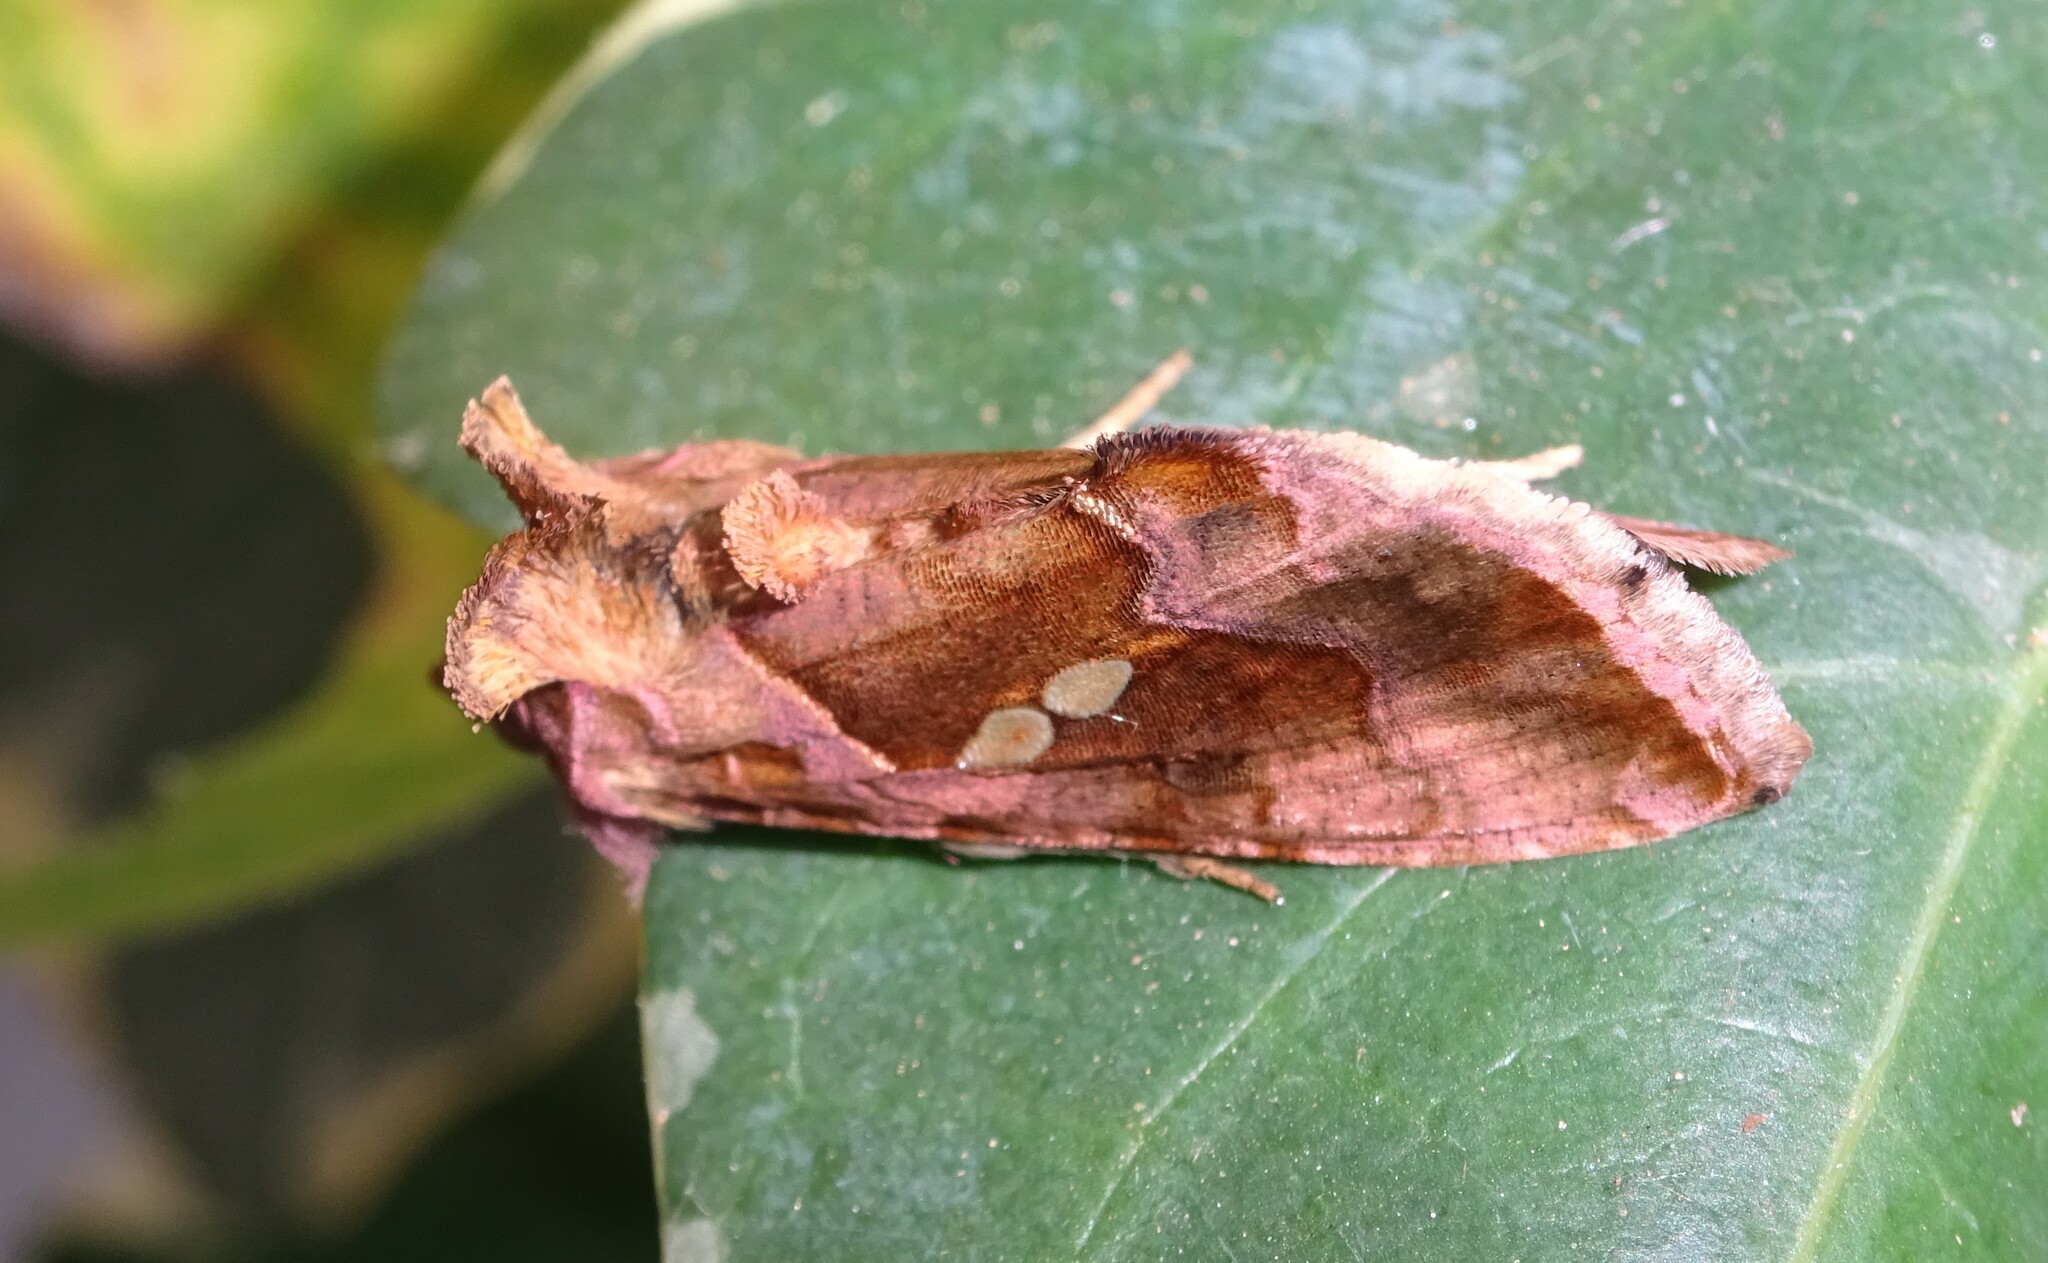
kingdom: Animalia
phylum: Arthropoda
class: Insecta
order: Lepidoptera
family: Noctuidae
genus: Chrysodeixis
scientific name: Chrysodeixis chalcites
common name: Golden twin-spot
